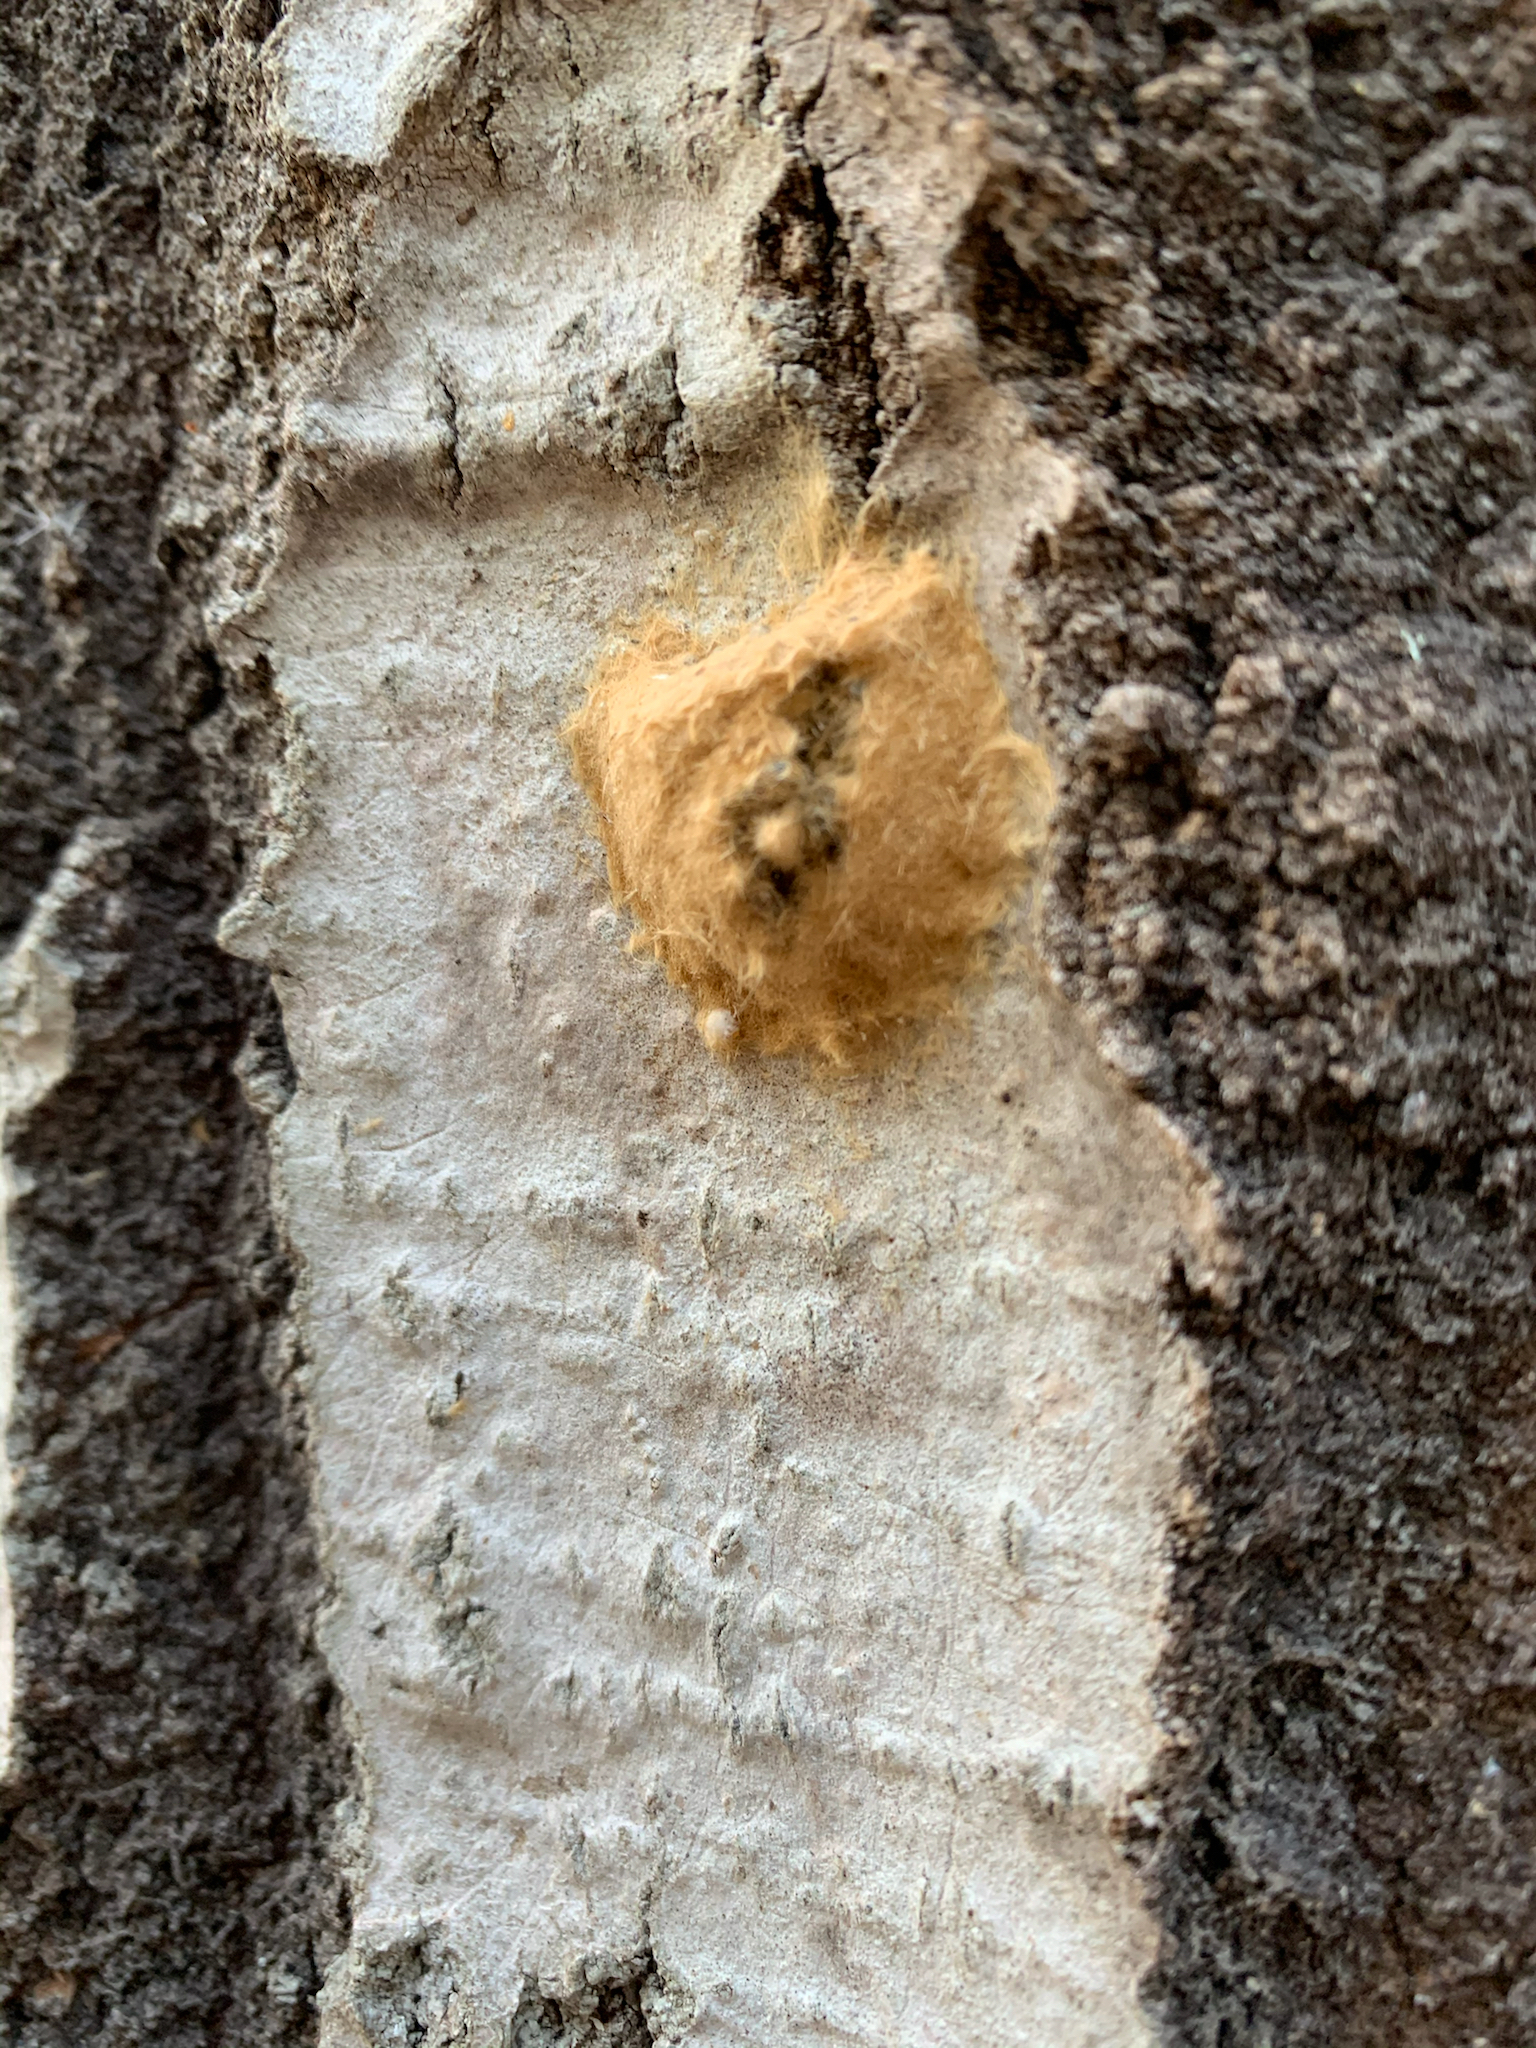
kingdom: Animalia
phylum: Arthropoda
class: Insecta
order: Lepidoptera
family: Erebidae
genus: Lymantria
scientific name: Lymantria dispar
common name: Gypsy moth
